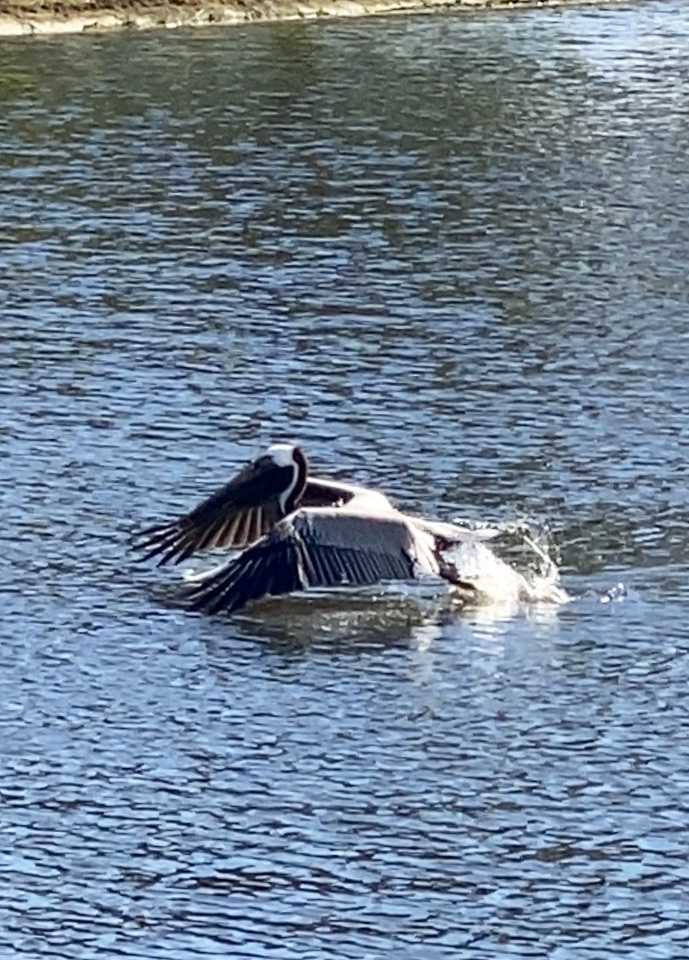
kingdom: Animalia
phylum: Chordata
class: Aves
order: Pelecaniformes
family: Pelecanidae
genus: Pelecanus
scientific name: Pelecanus occidentalis
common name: Brown pelican
